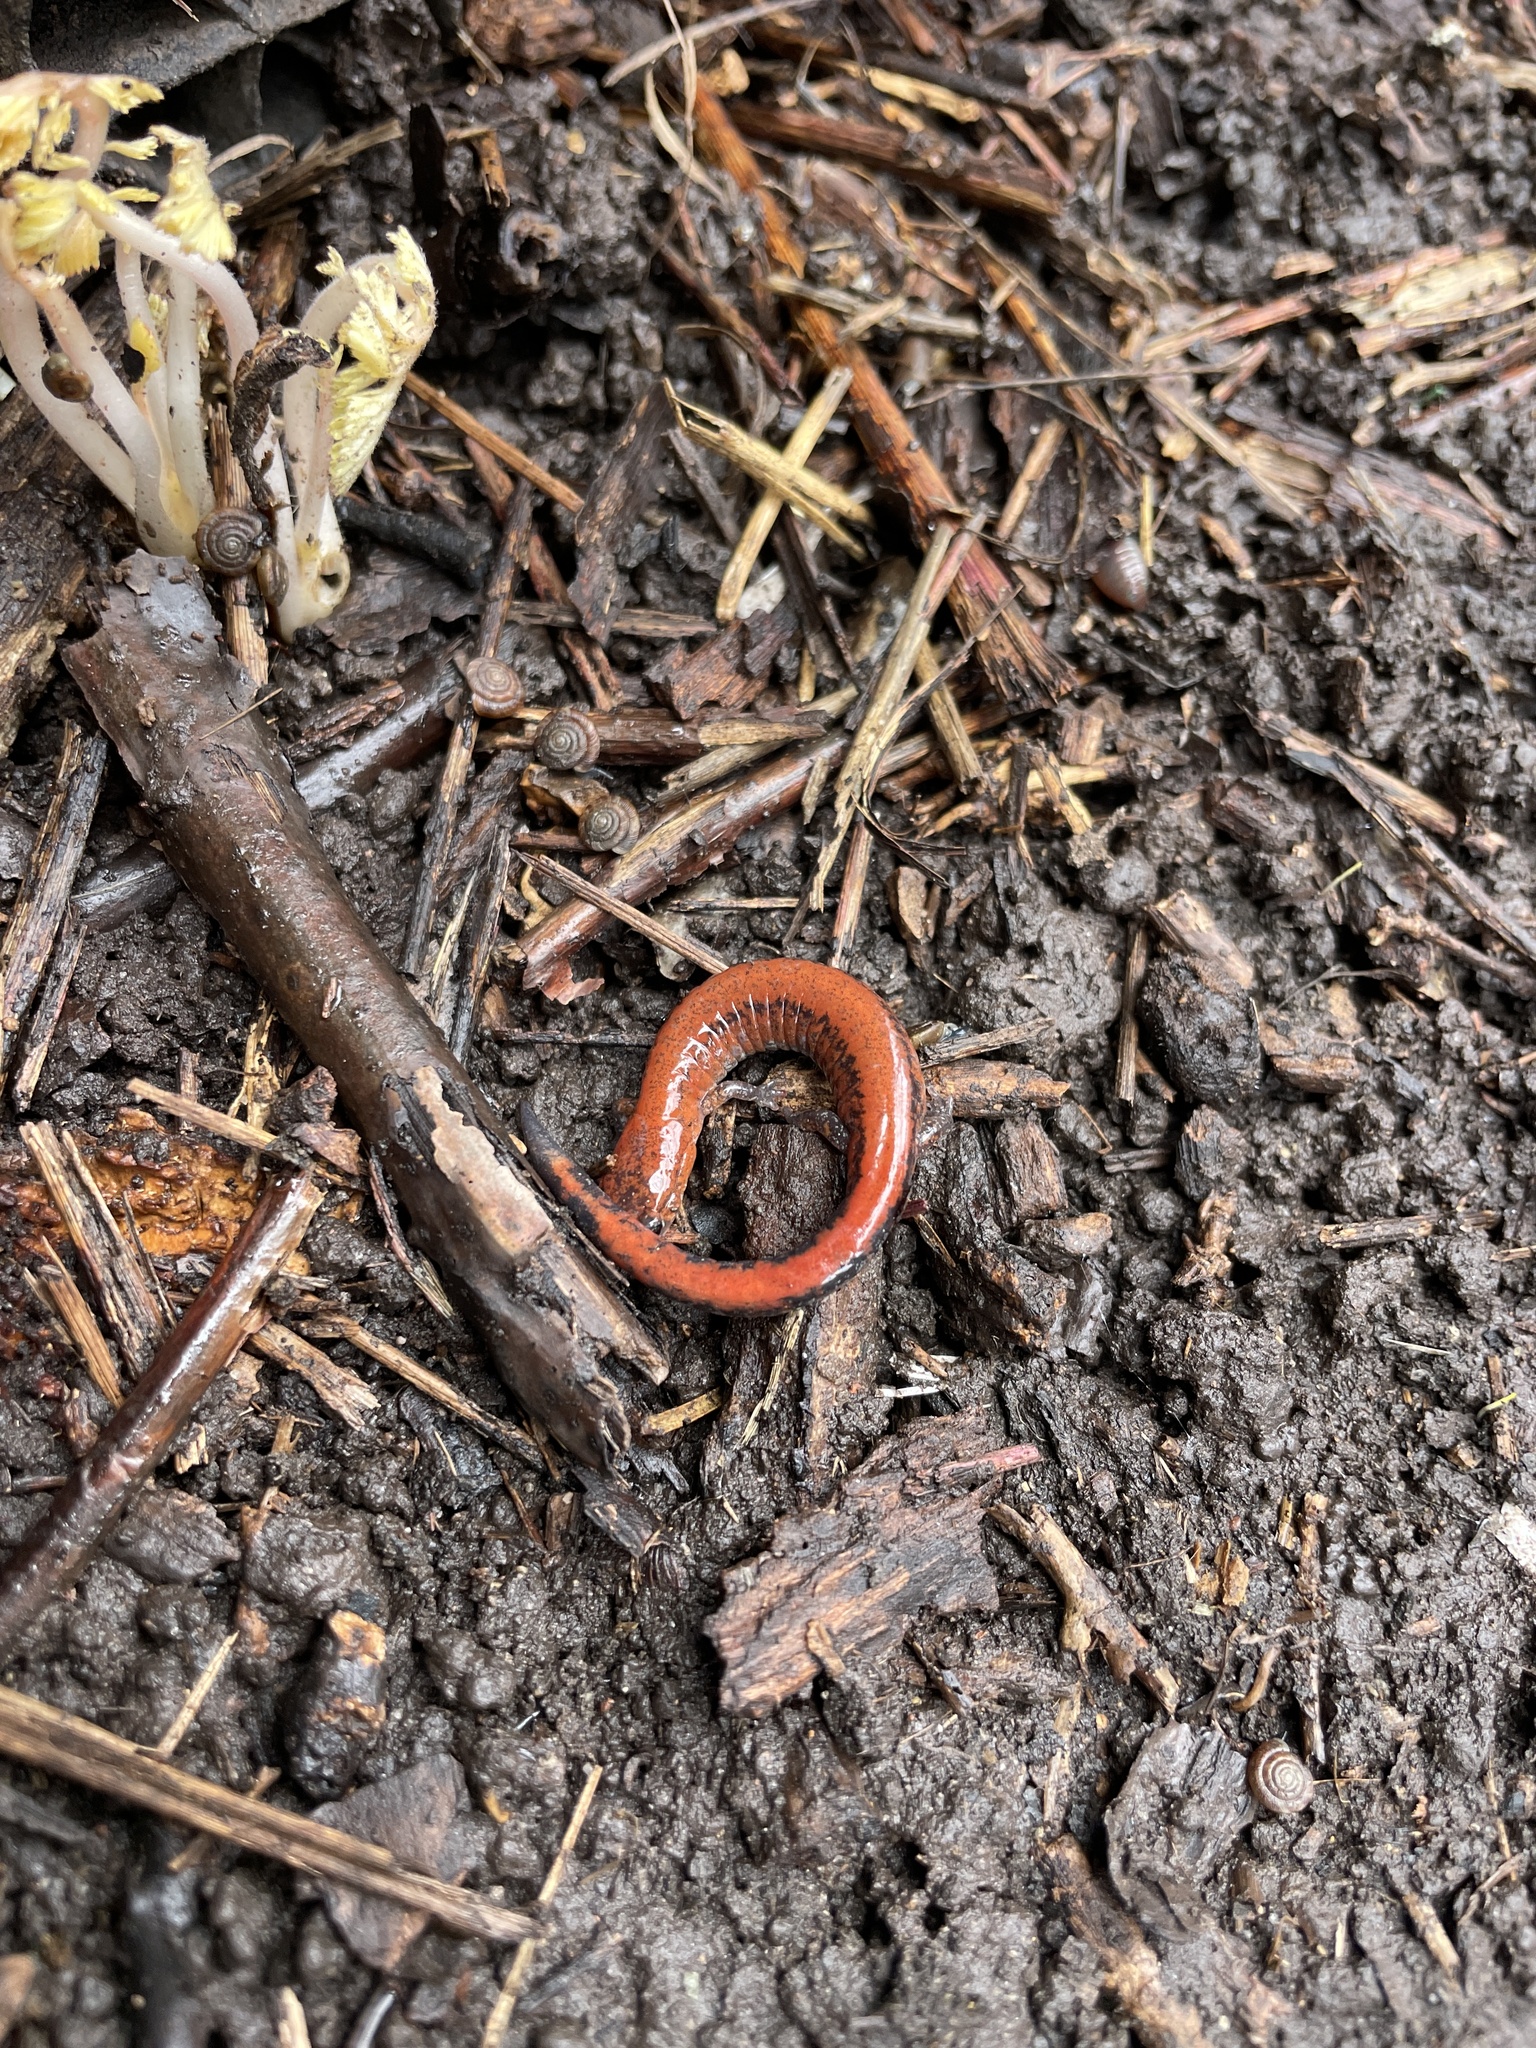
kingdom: Animalia
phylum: Chordata
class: Amphibia
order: Caudata
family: Plethodontidae
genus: Plethodon
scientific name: Plethodon cinereus
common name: Redback salamander
